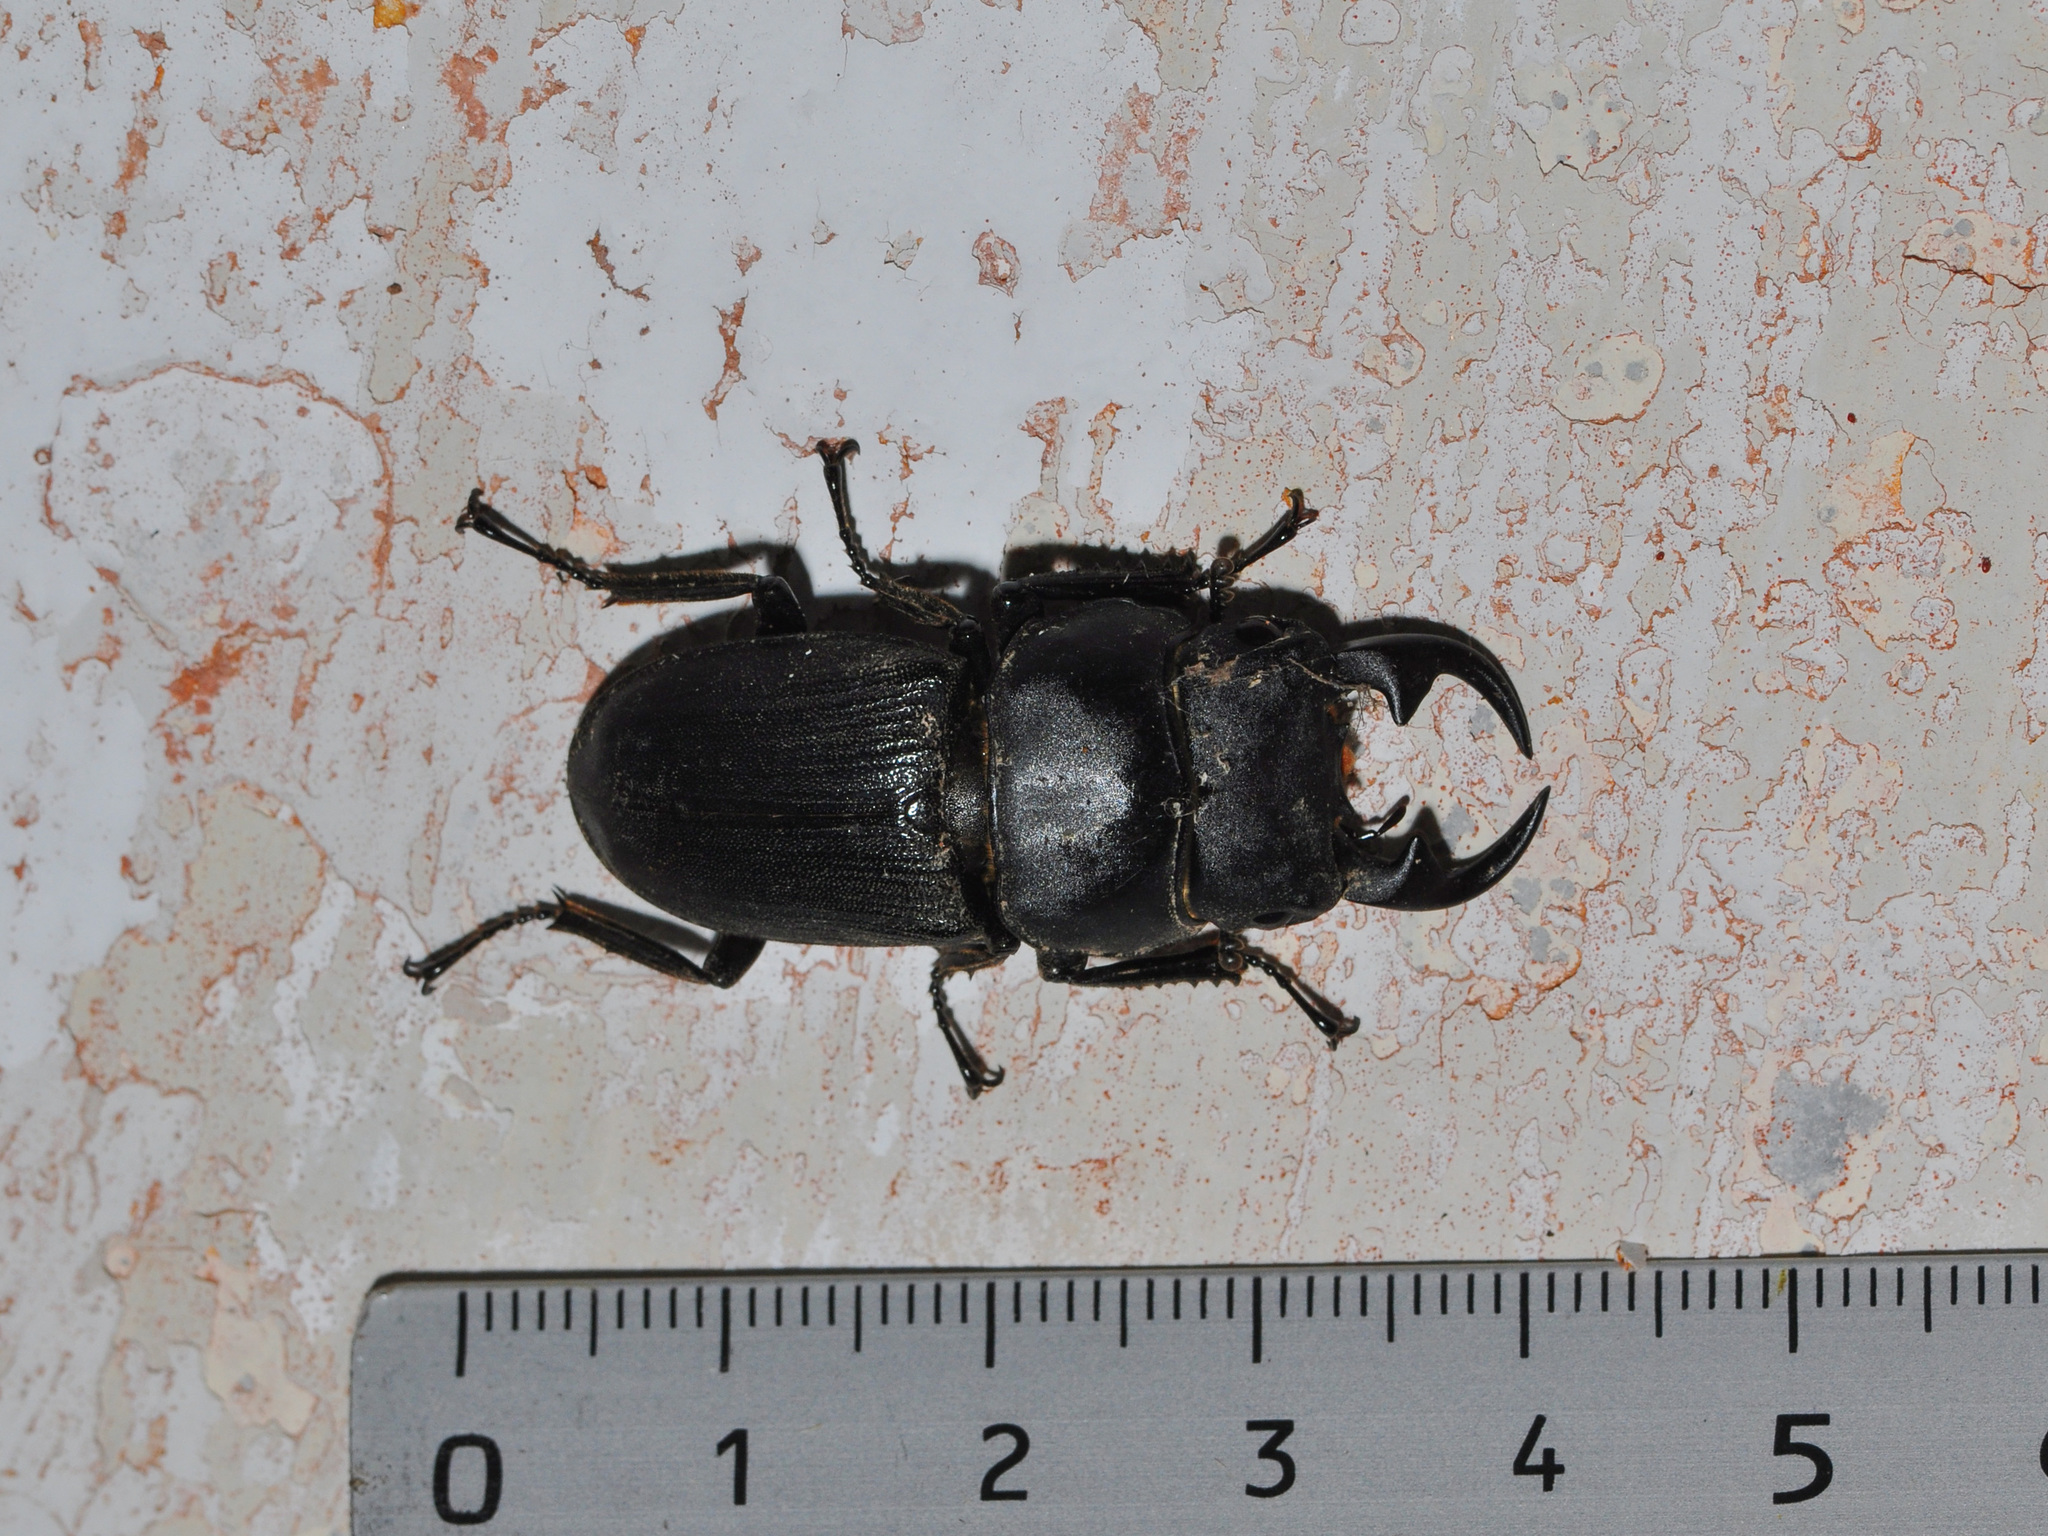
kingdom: Animalia
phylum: Arthropoda
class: Insecta
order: Coleoptera
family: Lucanidae
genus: Dorcus
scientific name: Dorcus ritsemae
